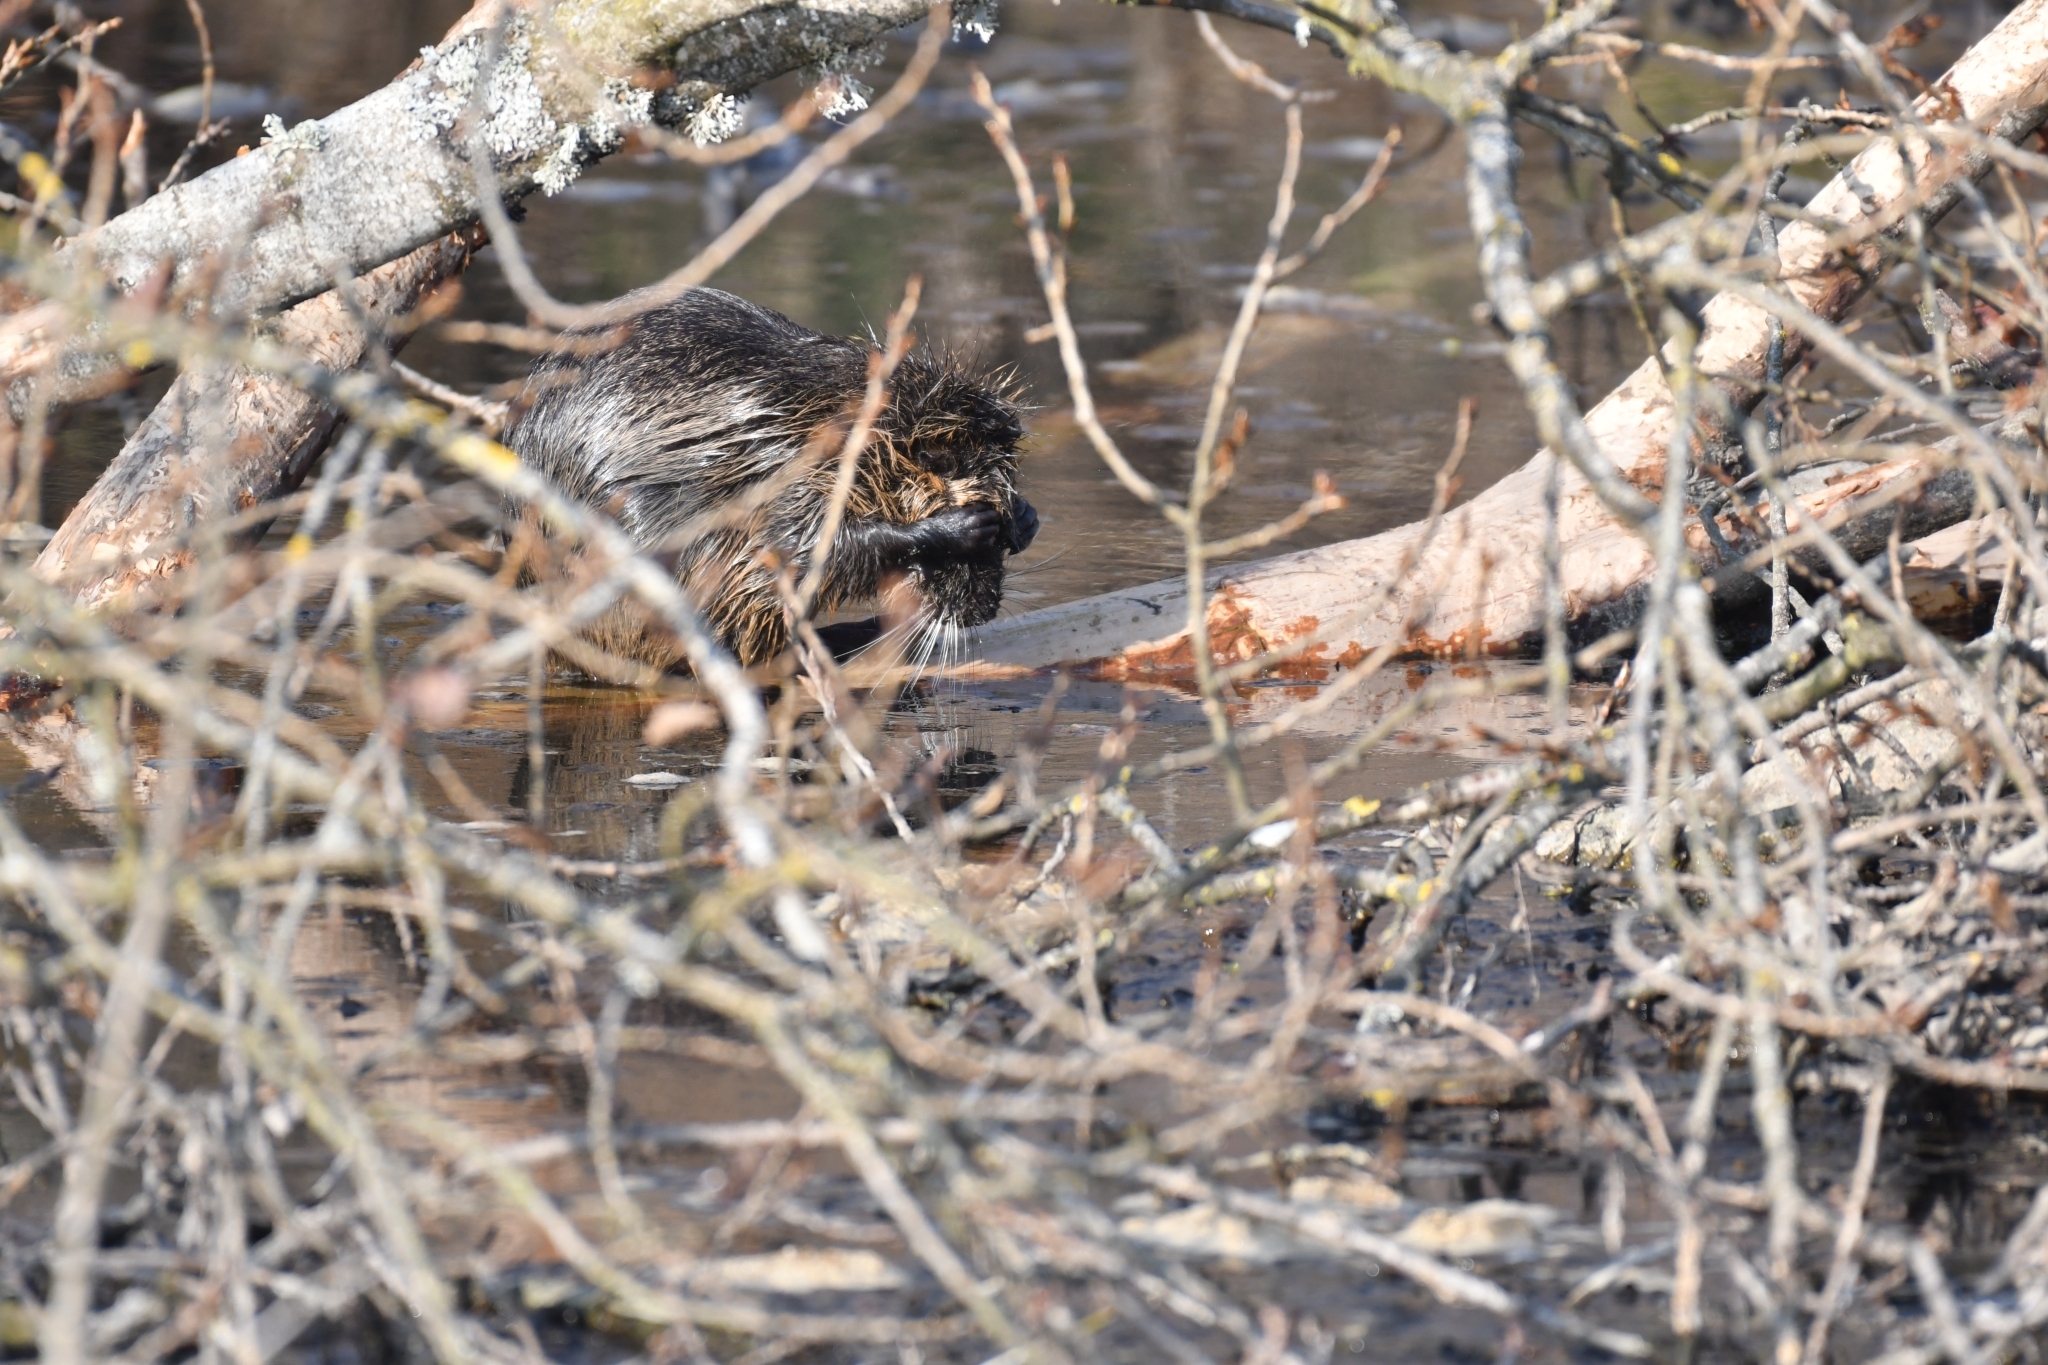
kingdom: Animalia
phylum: Chordata
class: Mammalia
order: Rodentia
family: Myocastoridae
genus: Myocastor
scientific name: Myocastor coypus
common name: Coypu
